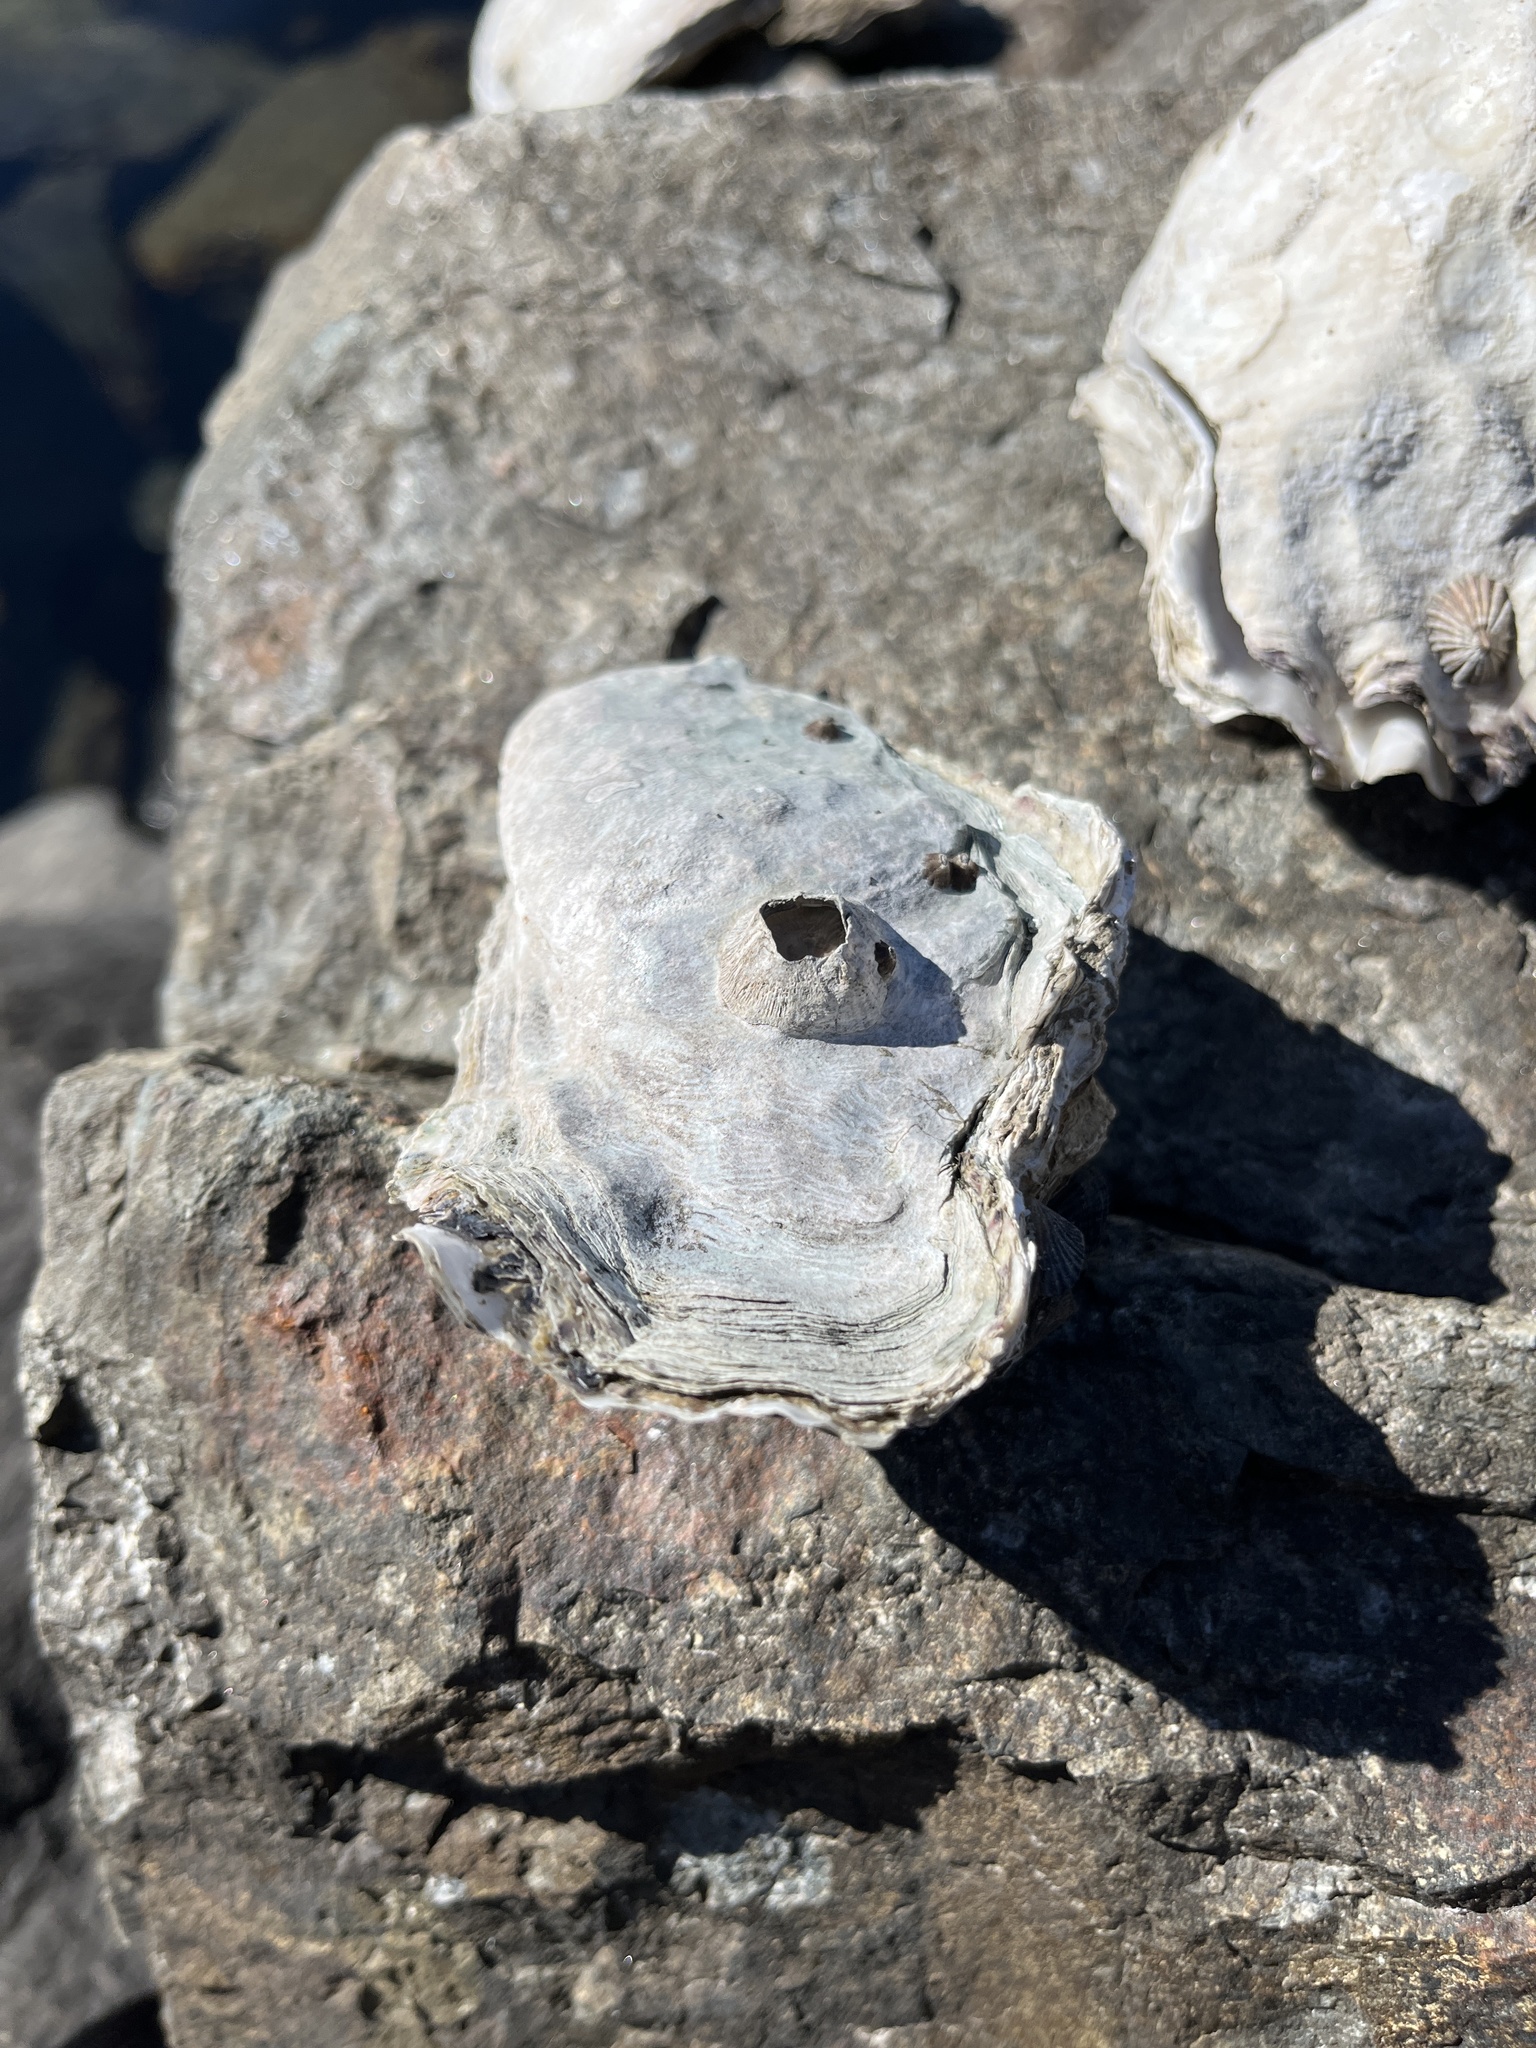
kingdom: Animalia
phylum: Mollusca
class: Bivalvia
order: Ostreida
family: Ostreidae
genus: Magallana
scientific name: Magallana gigas
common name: Pacific oyster
